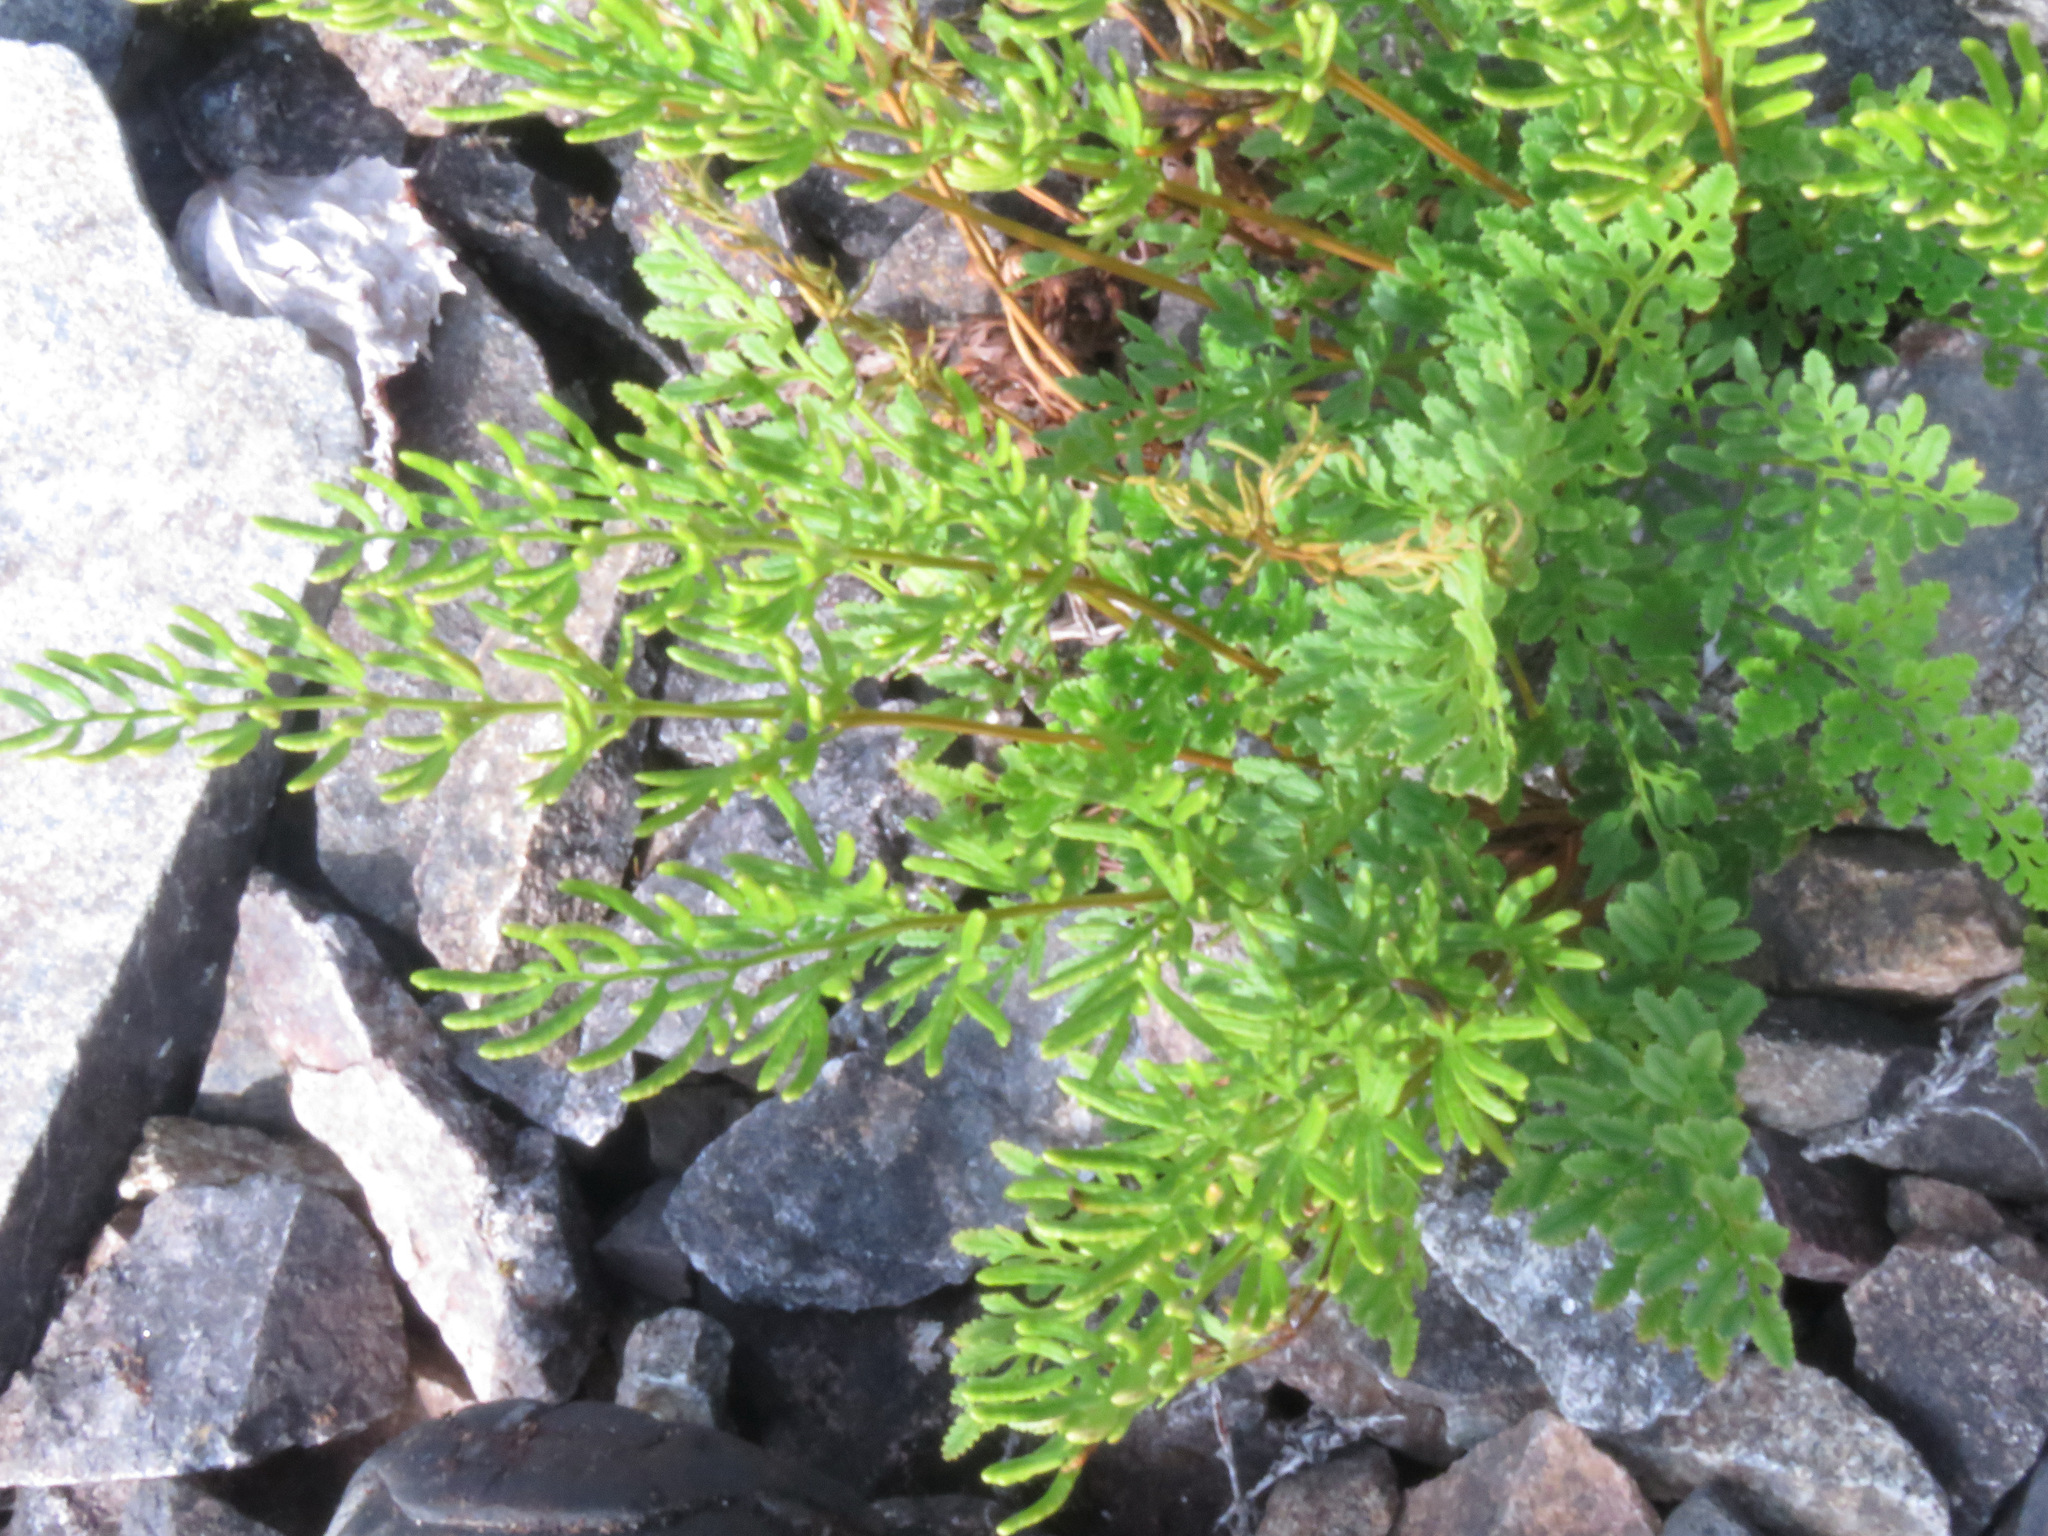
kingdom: Plantae
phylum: Tracheophyta
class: Polypodiopsida
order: Polypodiales
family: Pteridaceae
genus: Cryptogramma
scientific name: Cryptogramma acrostichoides
